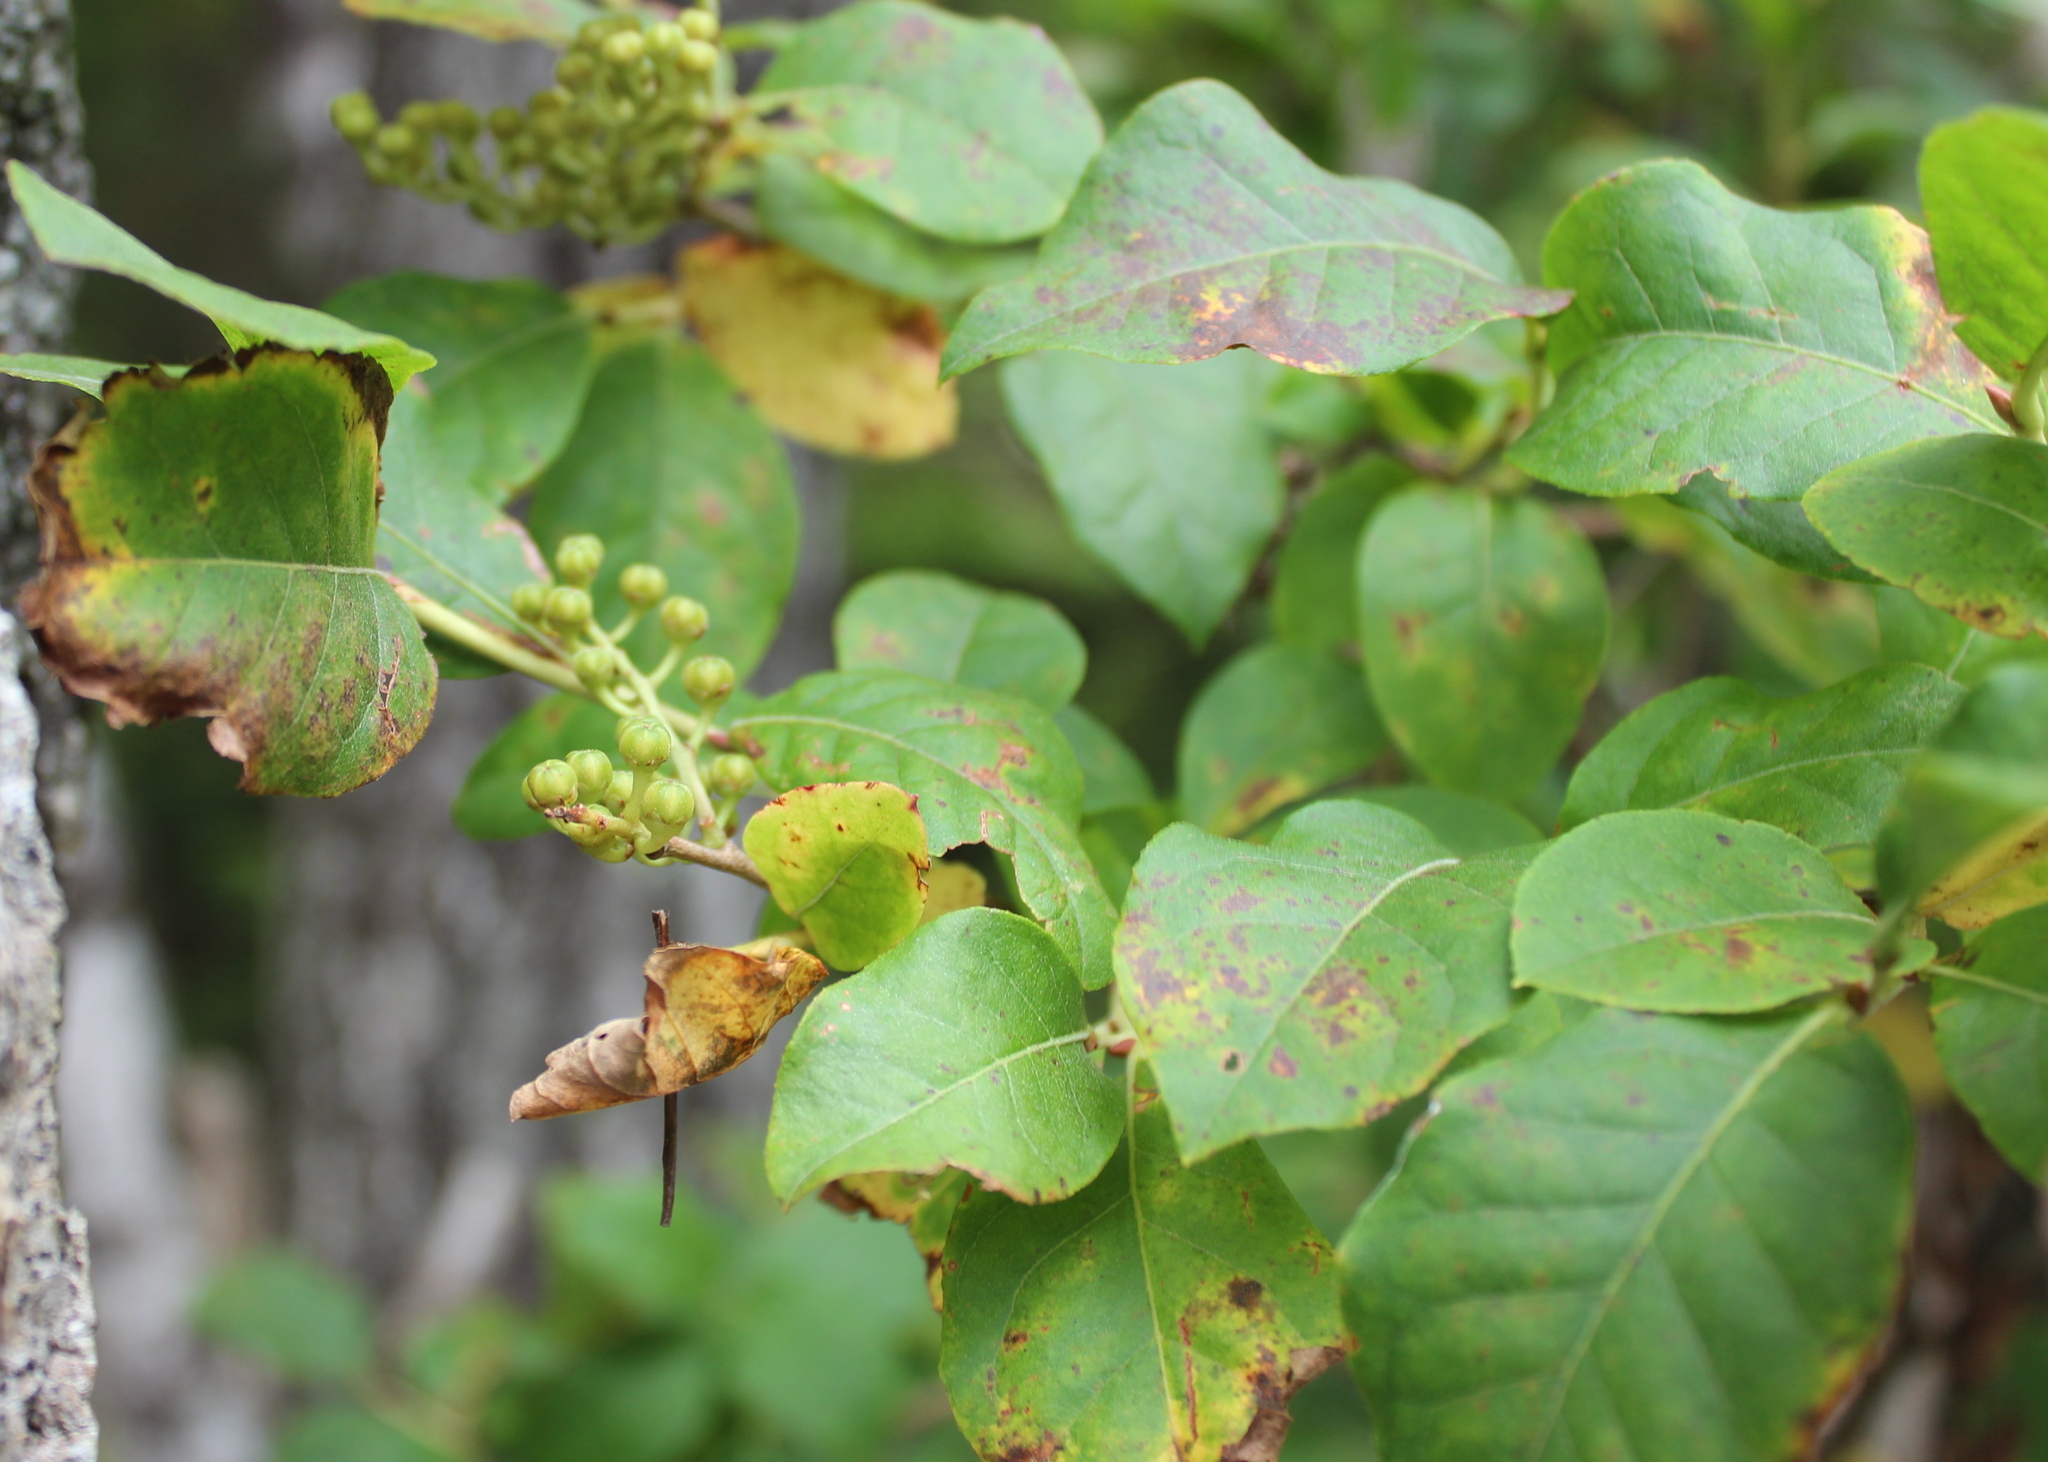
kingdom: Plantae
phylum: Tracheophyta
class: Magnoliopsida
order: Ericales
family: Ericaceae
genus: Lyonia
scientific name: Lyonia ligustrina
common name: Maleberry
